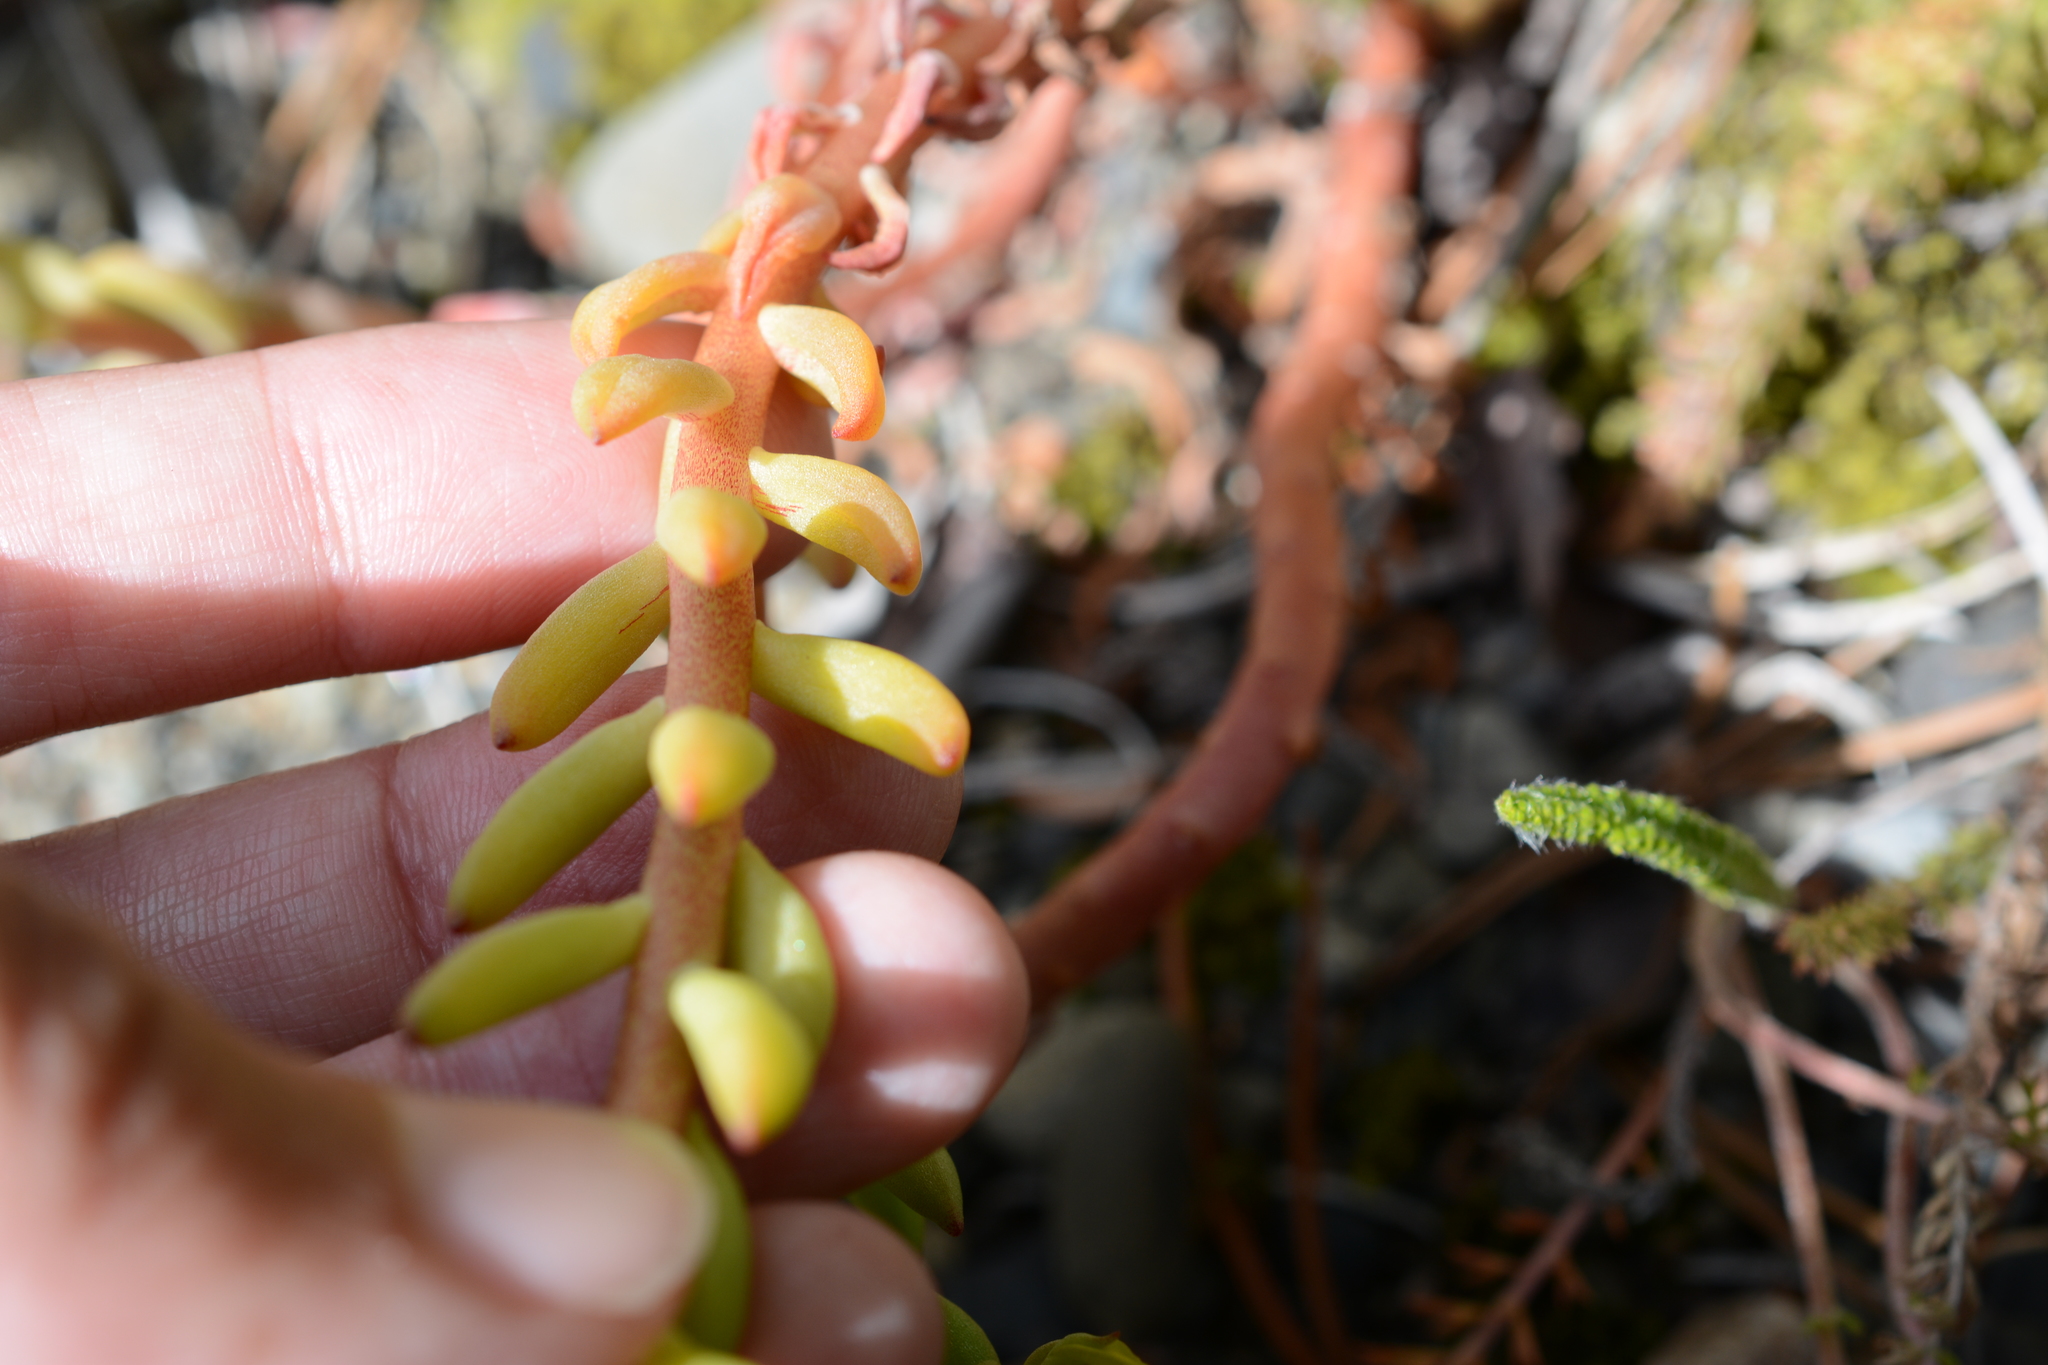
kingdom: Plantae
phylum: Tracheophyta
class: Magnoliopsida
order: Saxifragales
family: Crassulaceae
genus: Sedum
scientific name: Sedum lanceolatum
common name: Common stonecrop
